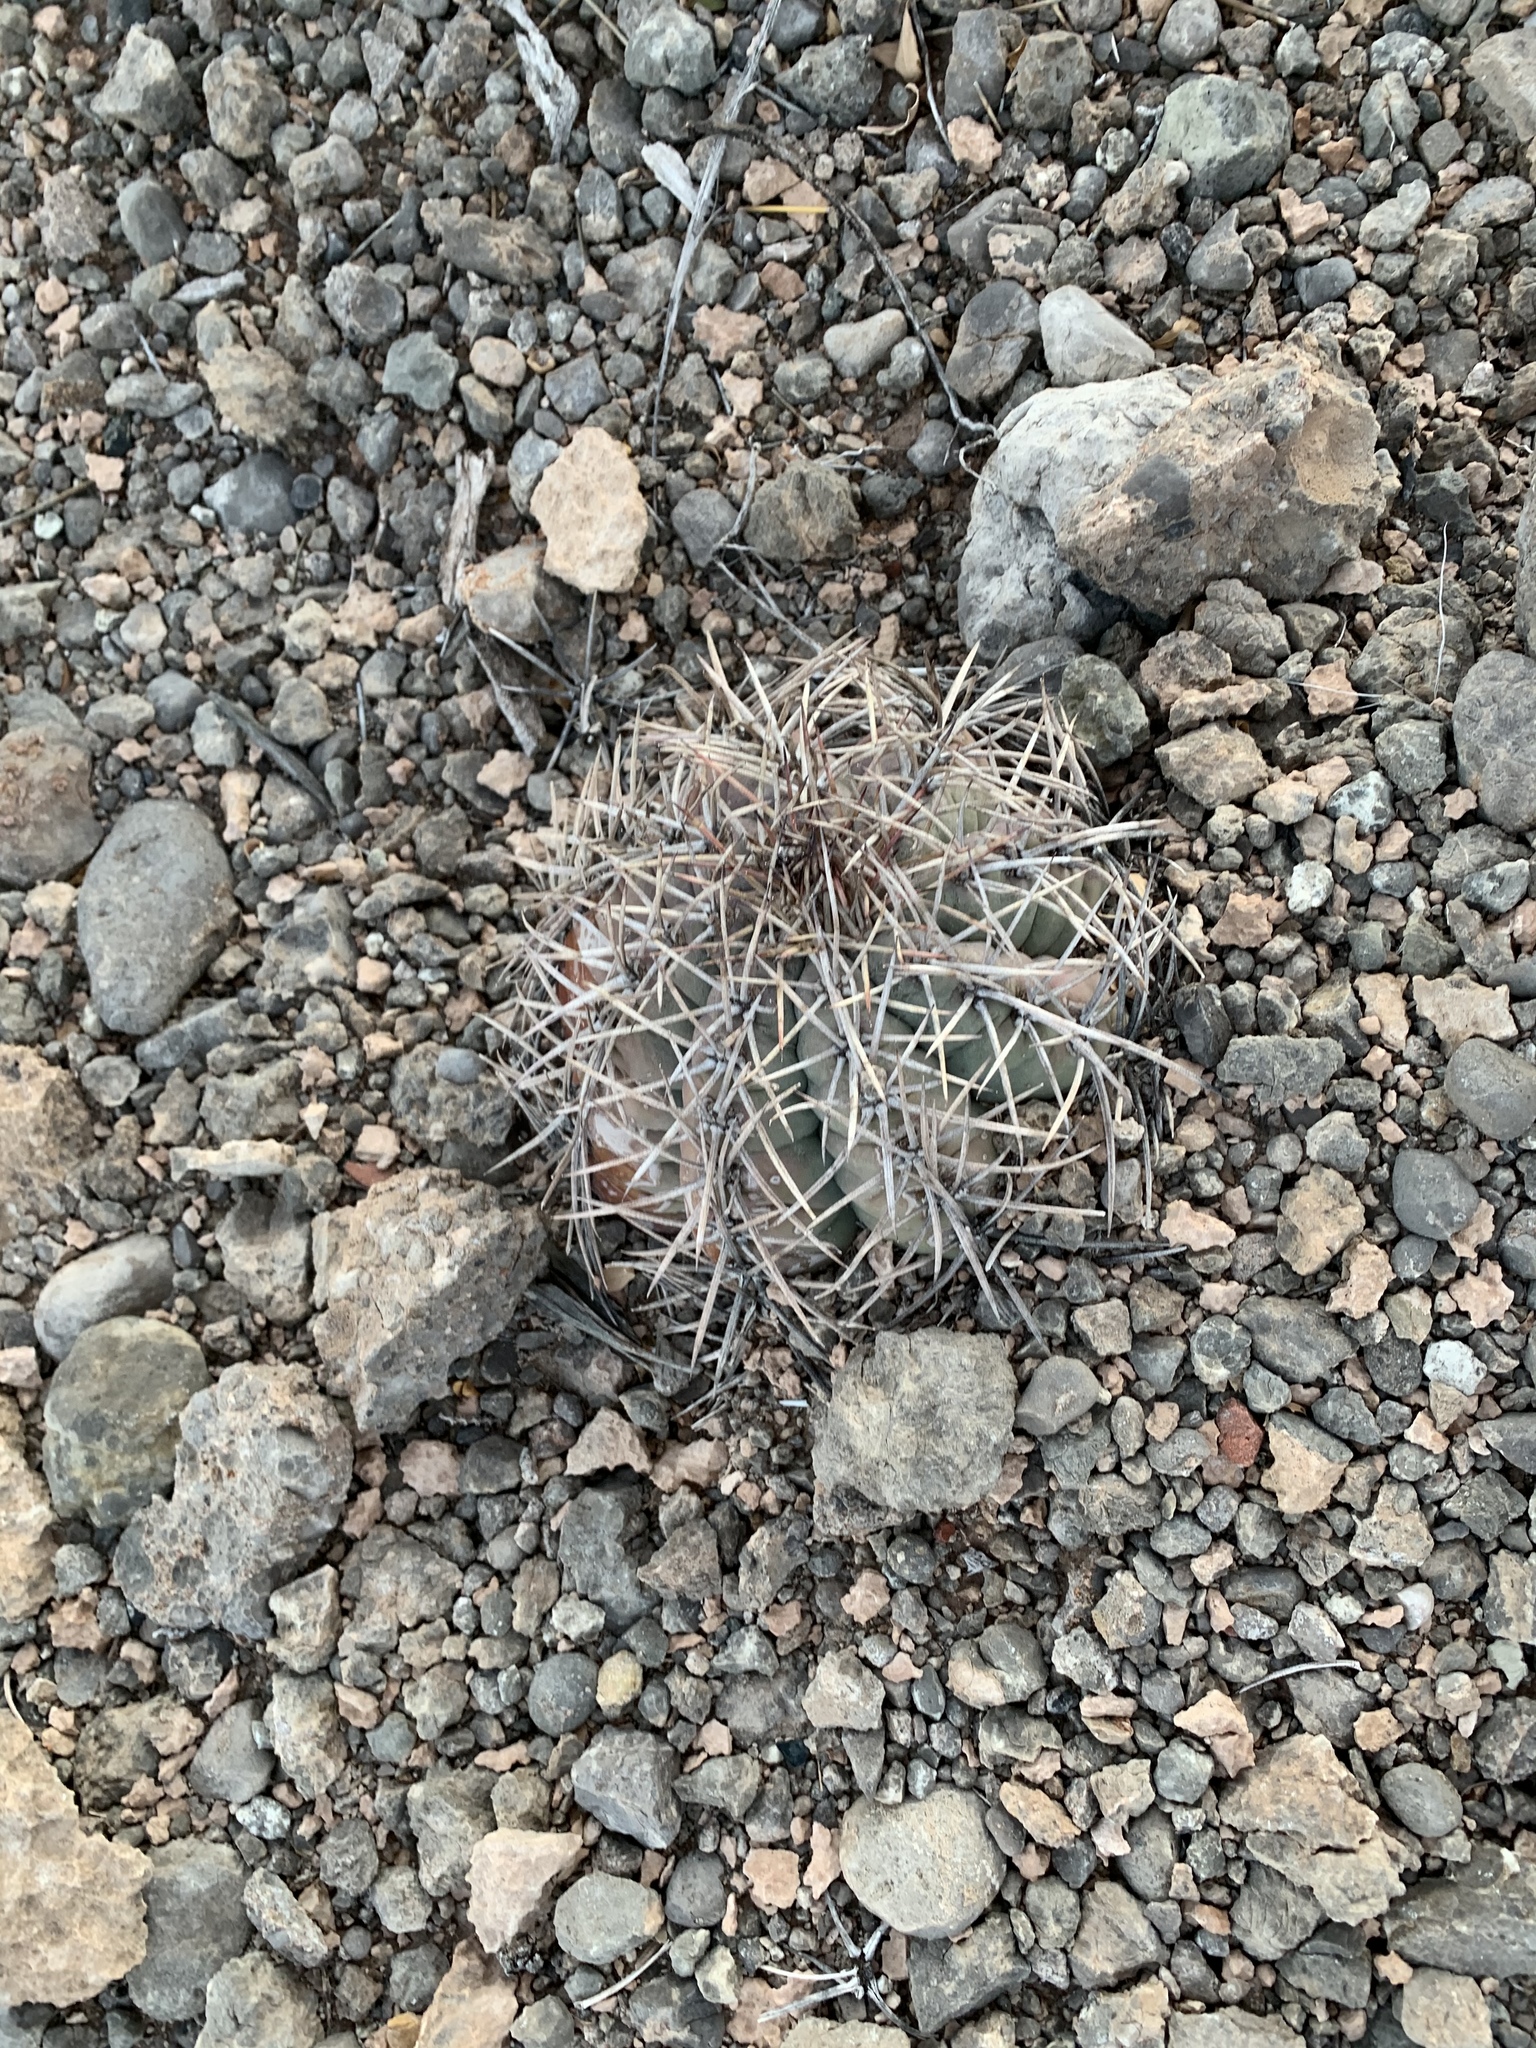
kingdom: Plantae
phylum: Tracheophyta
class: Magnoliopsida
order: Caryophyllales
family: Cactaceae
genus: Echinocactus
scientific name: Echinocactus horizonthalonius
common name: Devilshead
